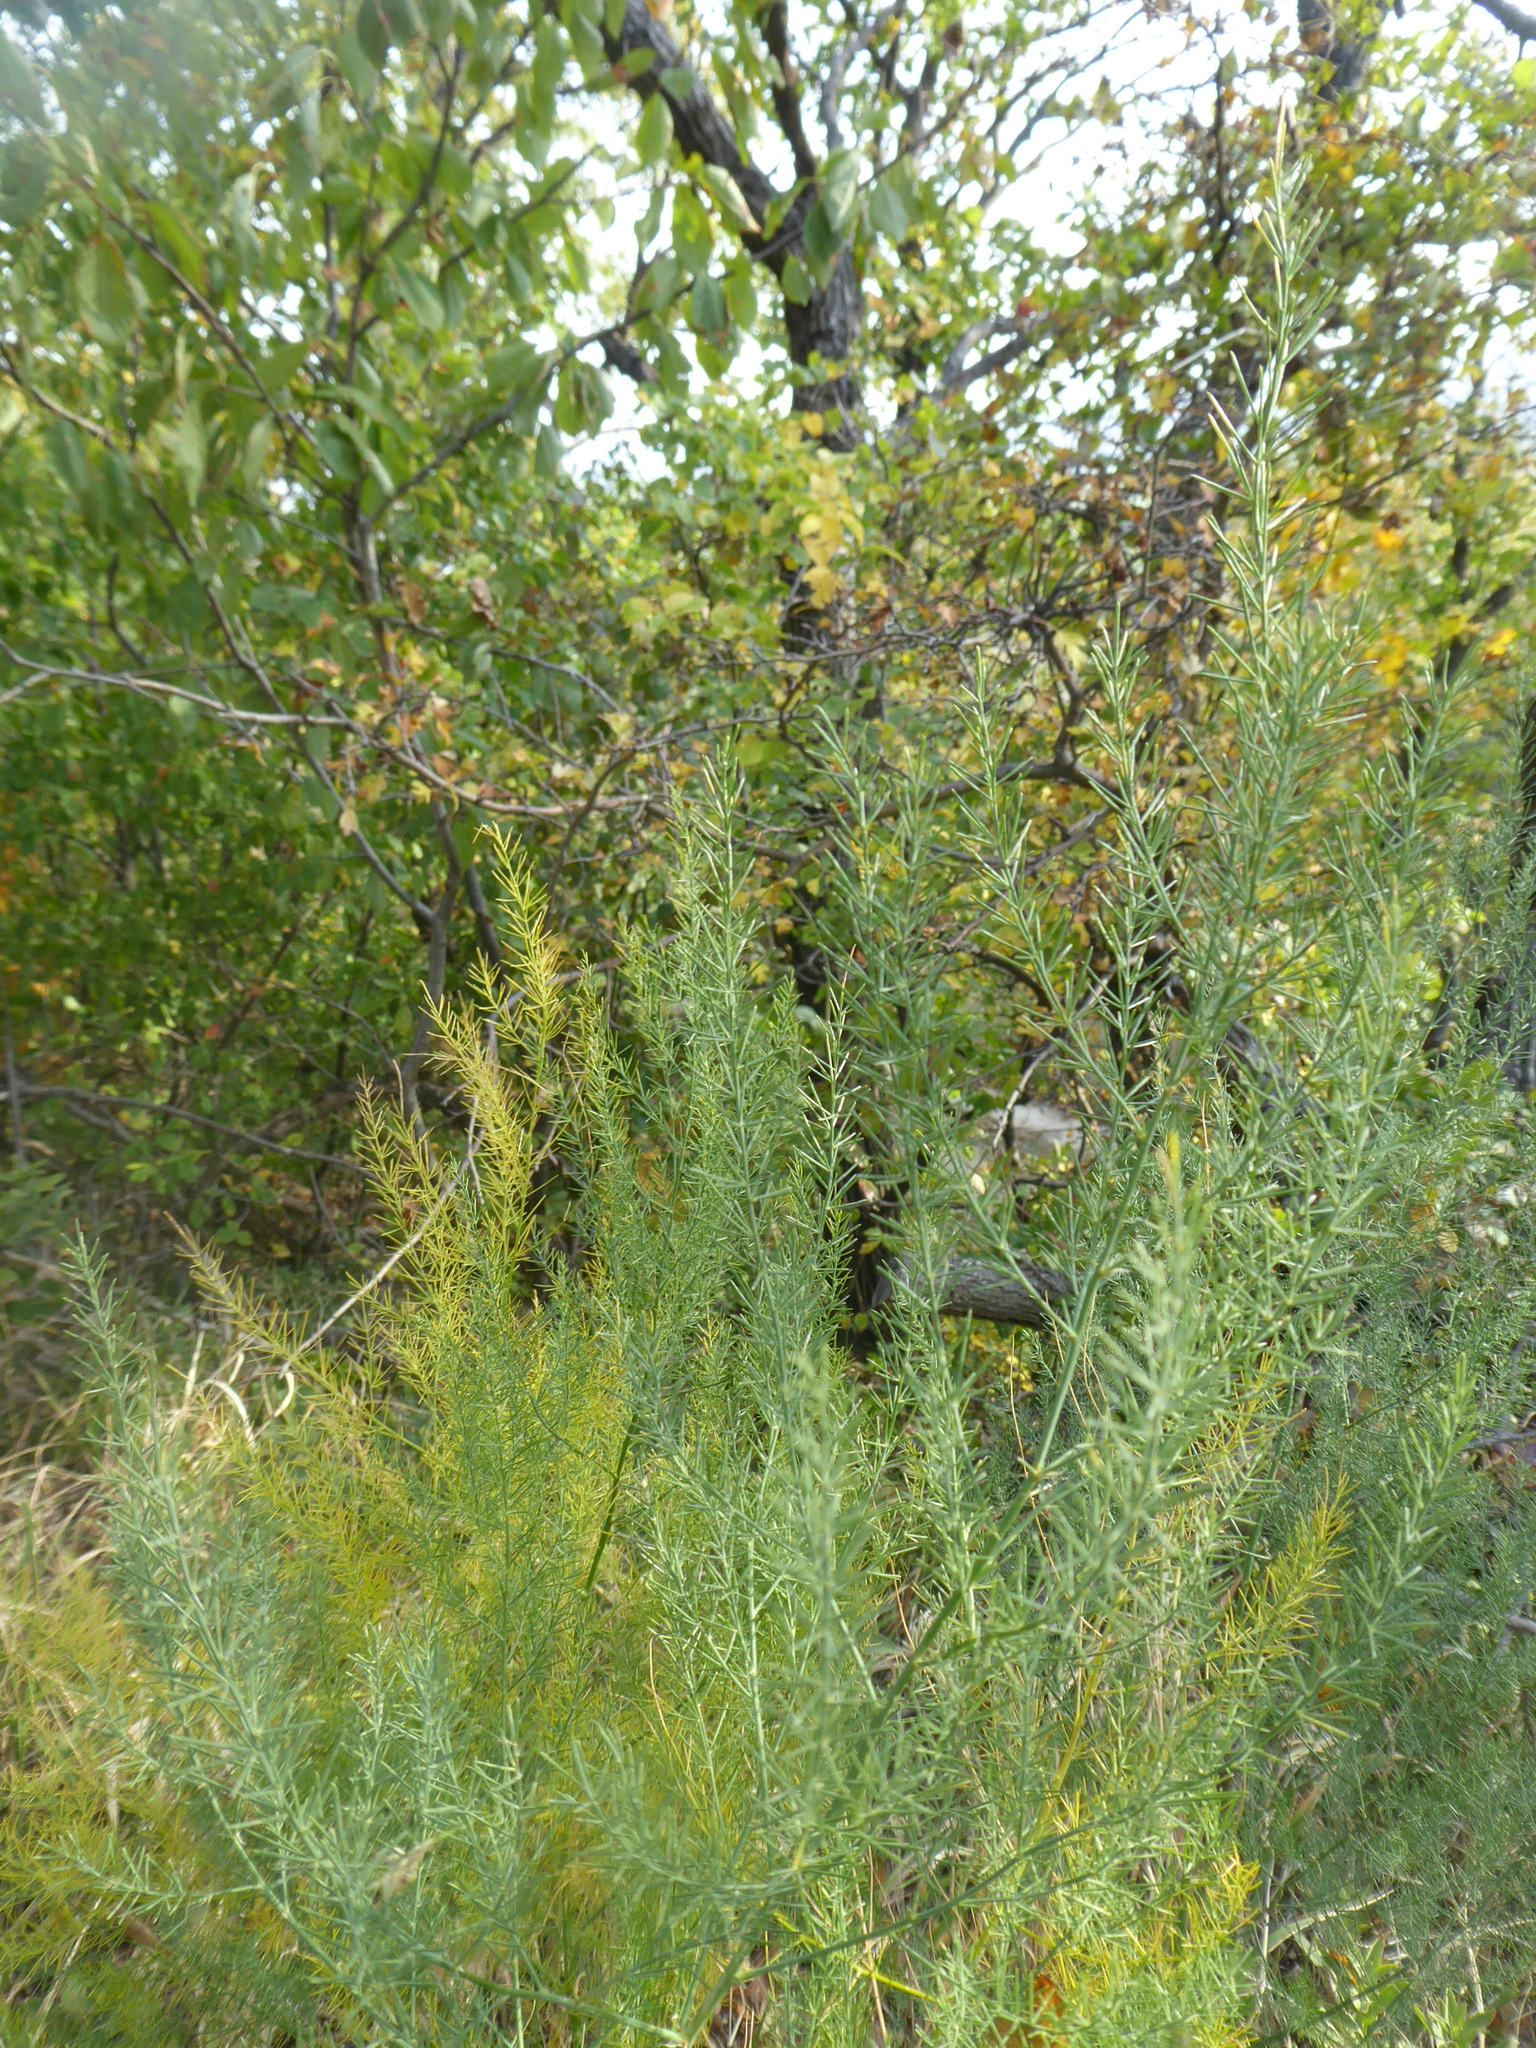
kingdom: Plantae
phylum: Tracheophyta
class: Liliopsida
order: Asparagales
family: Asparagaceae
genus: Asparagus
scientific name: Asparagus officinalis
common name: Garden asparagus
